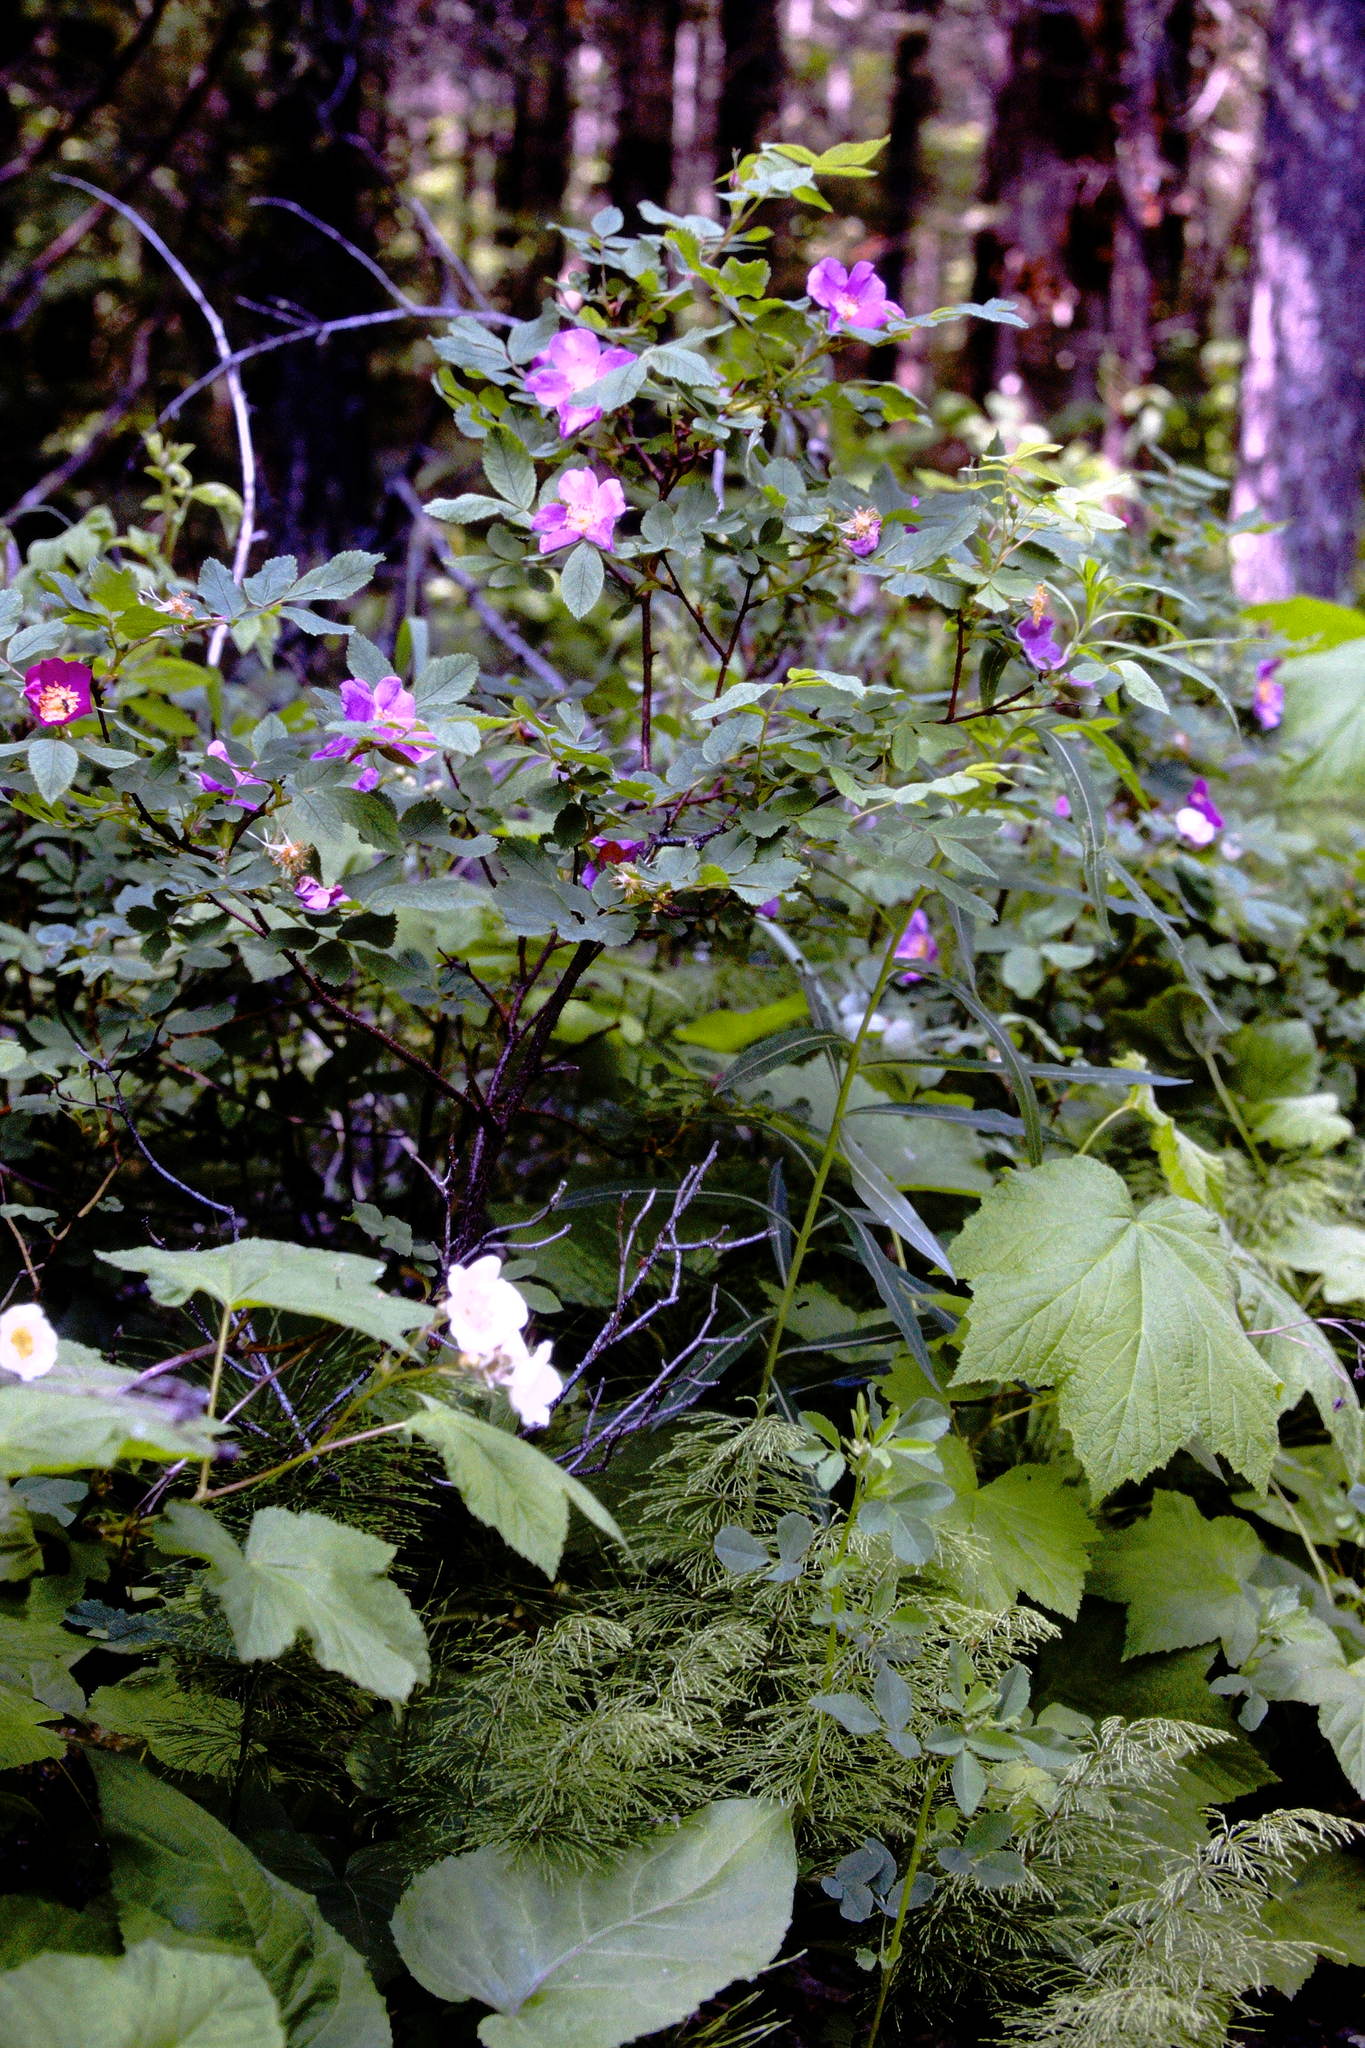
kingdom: Plantae
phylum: Tracheophyta
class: Magnoliopsida
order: Rosales
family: Rosaceae
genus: Rosa
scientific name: Rosa acicularis
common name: Prickly rose
